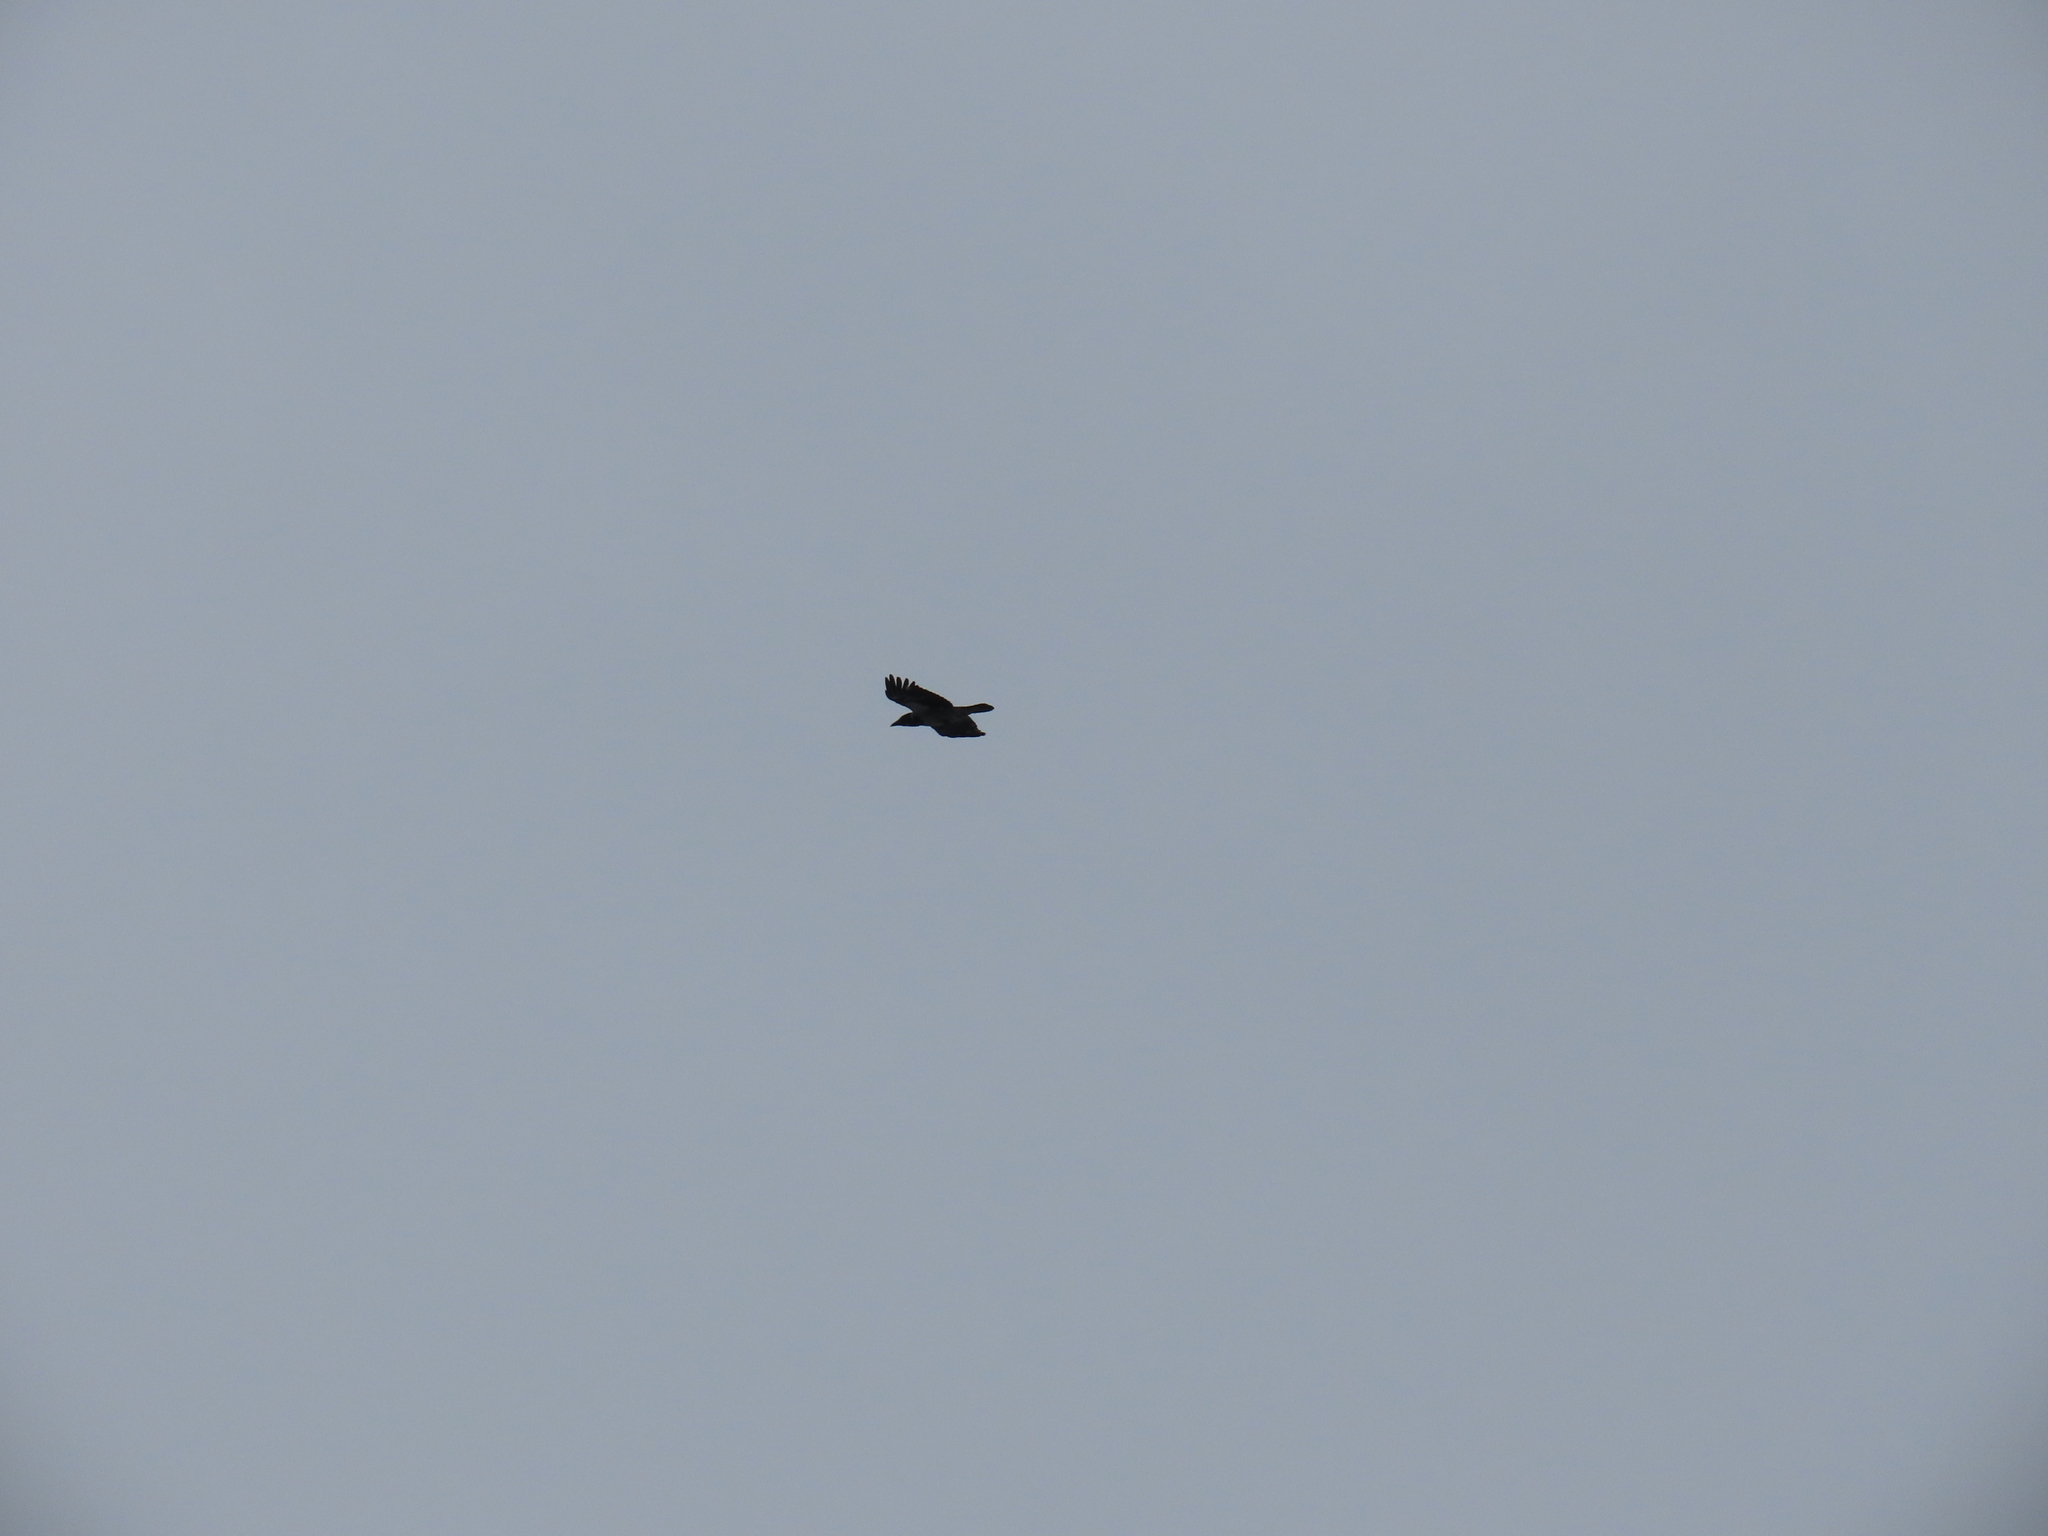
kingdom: Animalia
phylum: Chordata
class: Aves
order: Passeriformes
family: Corvidae
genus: Corvus
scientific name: Corvus corax
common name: Common raven
